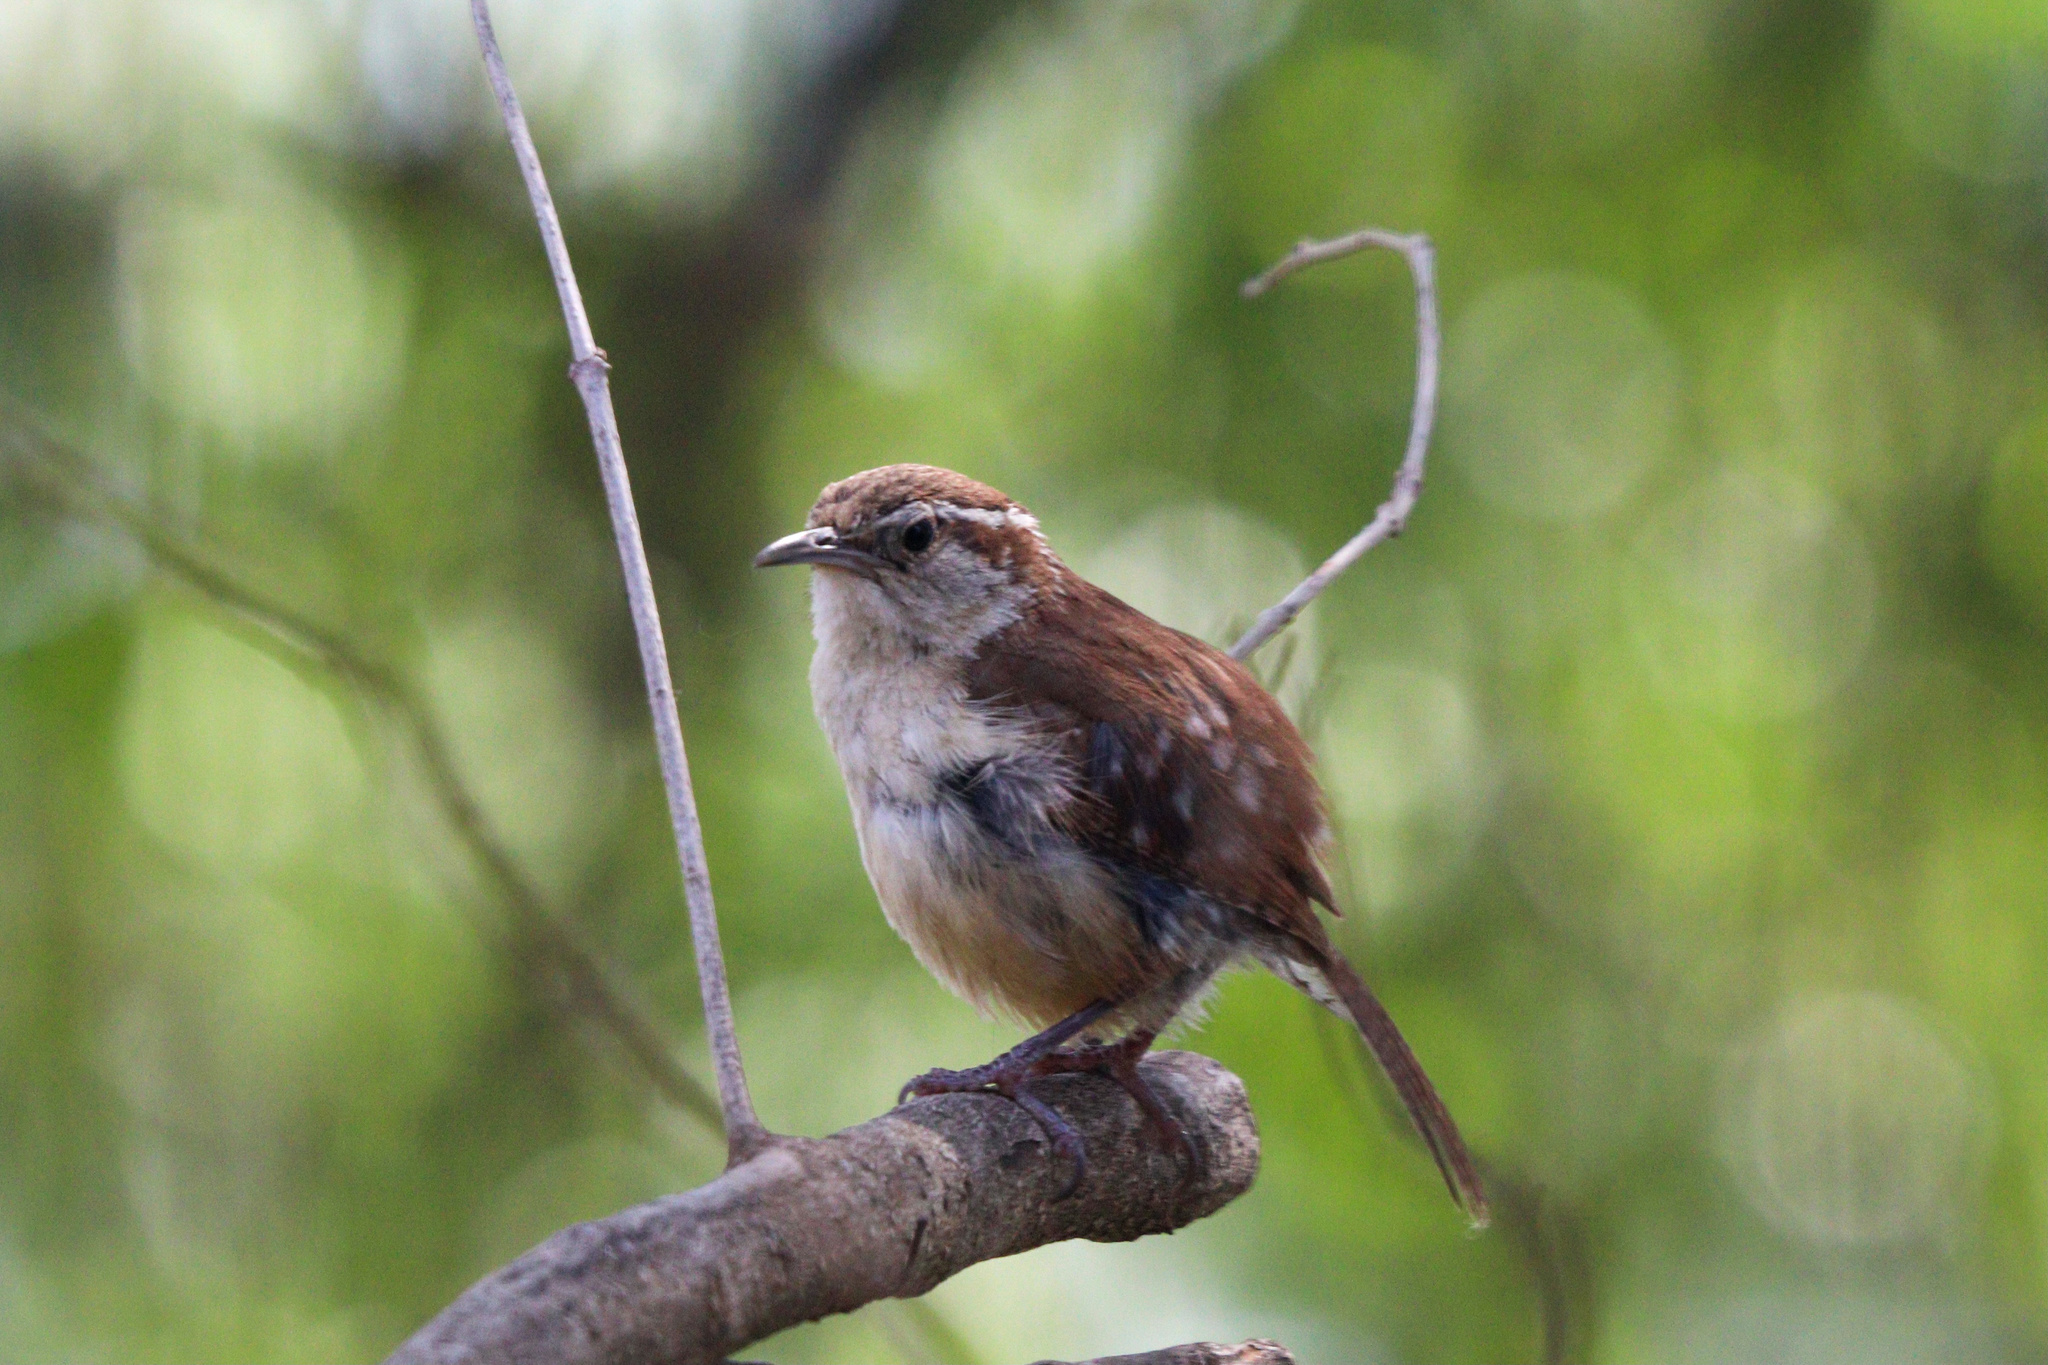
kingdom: Animalia
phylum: Chordata
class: Aves
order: Passeriformes
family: Troglodytidae
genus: Thryothorus
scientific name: Thryothorus ludovicianus
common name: Carolina wren
